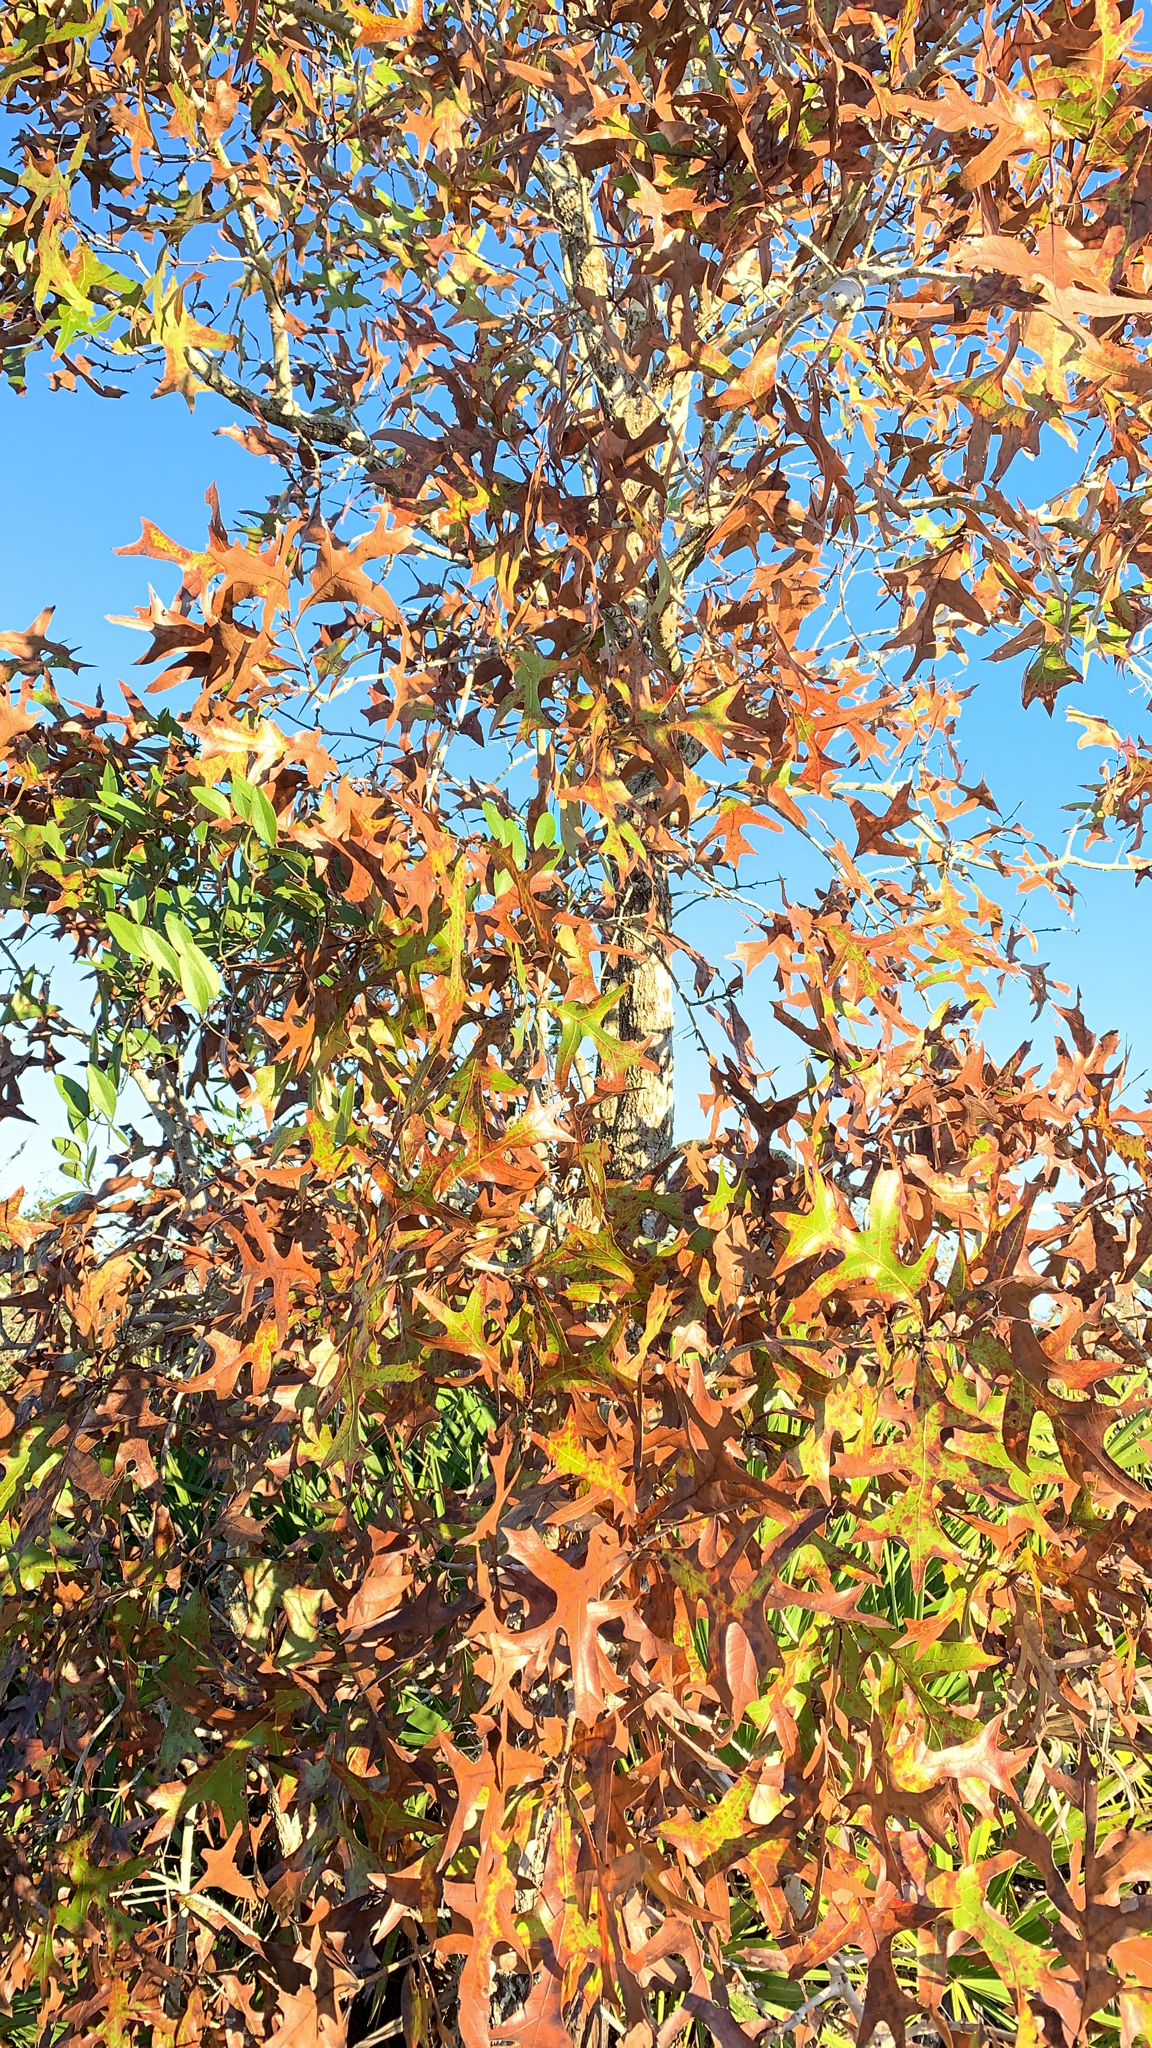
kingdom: Plantae
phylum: Tracheophyta
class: Magnoliopsida
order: Fagales
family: Fagaceae
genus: Quercus
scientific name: Quercus laevis
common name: Turkey oak
